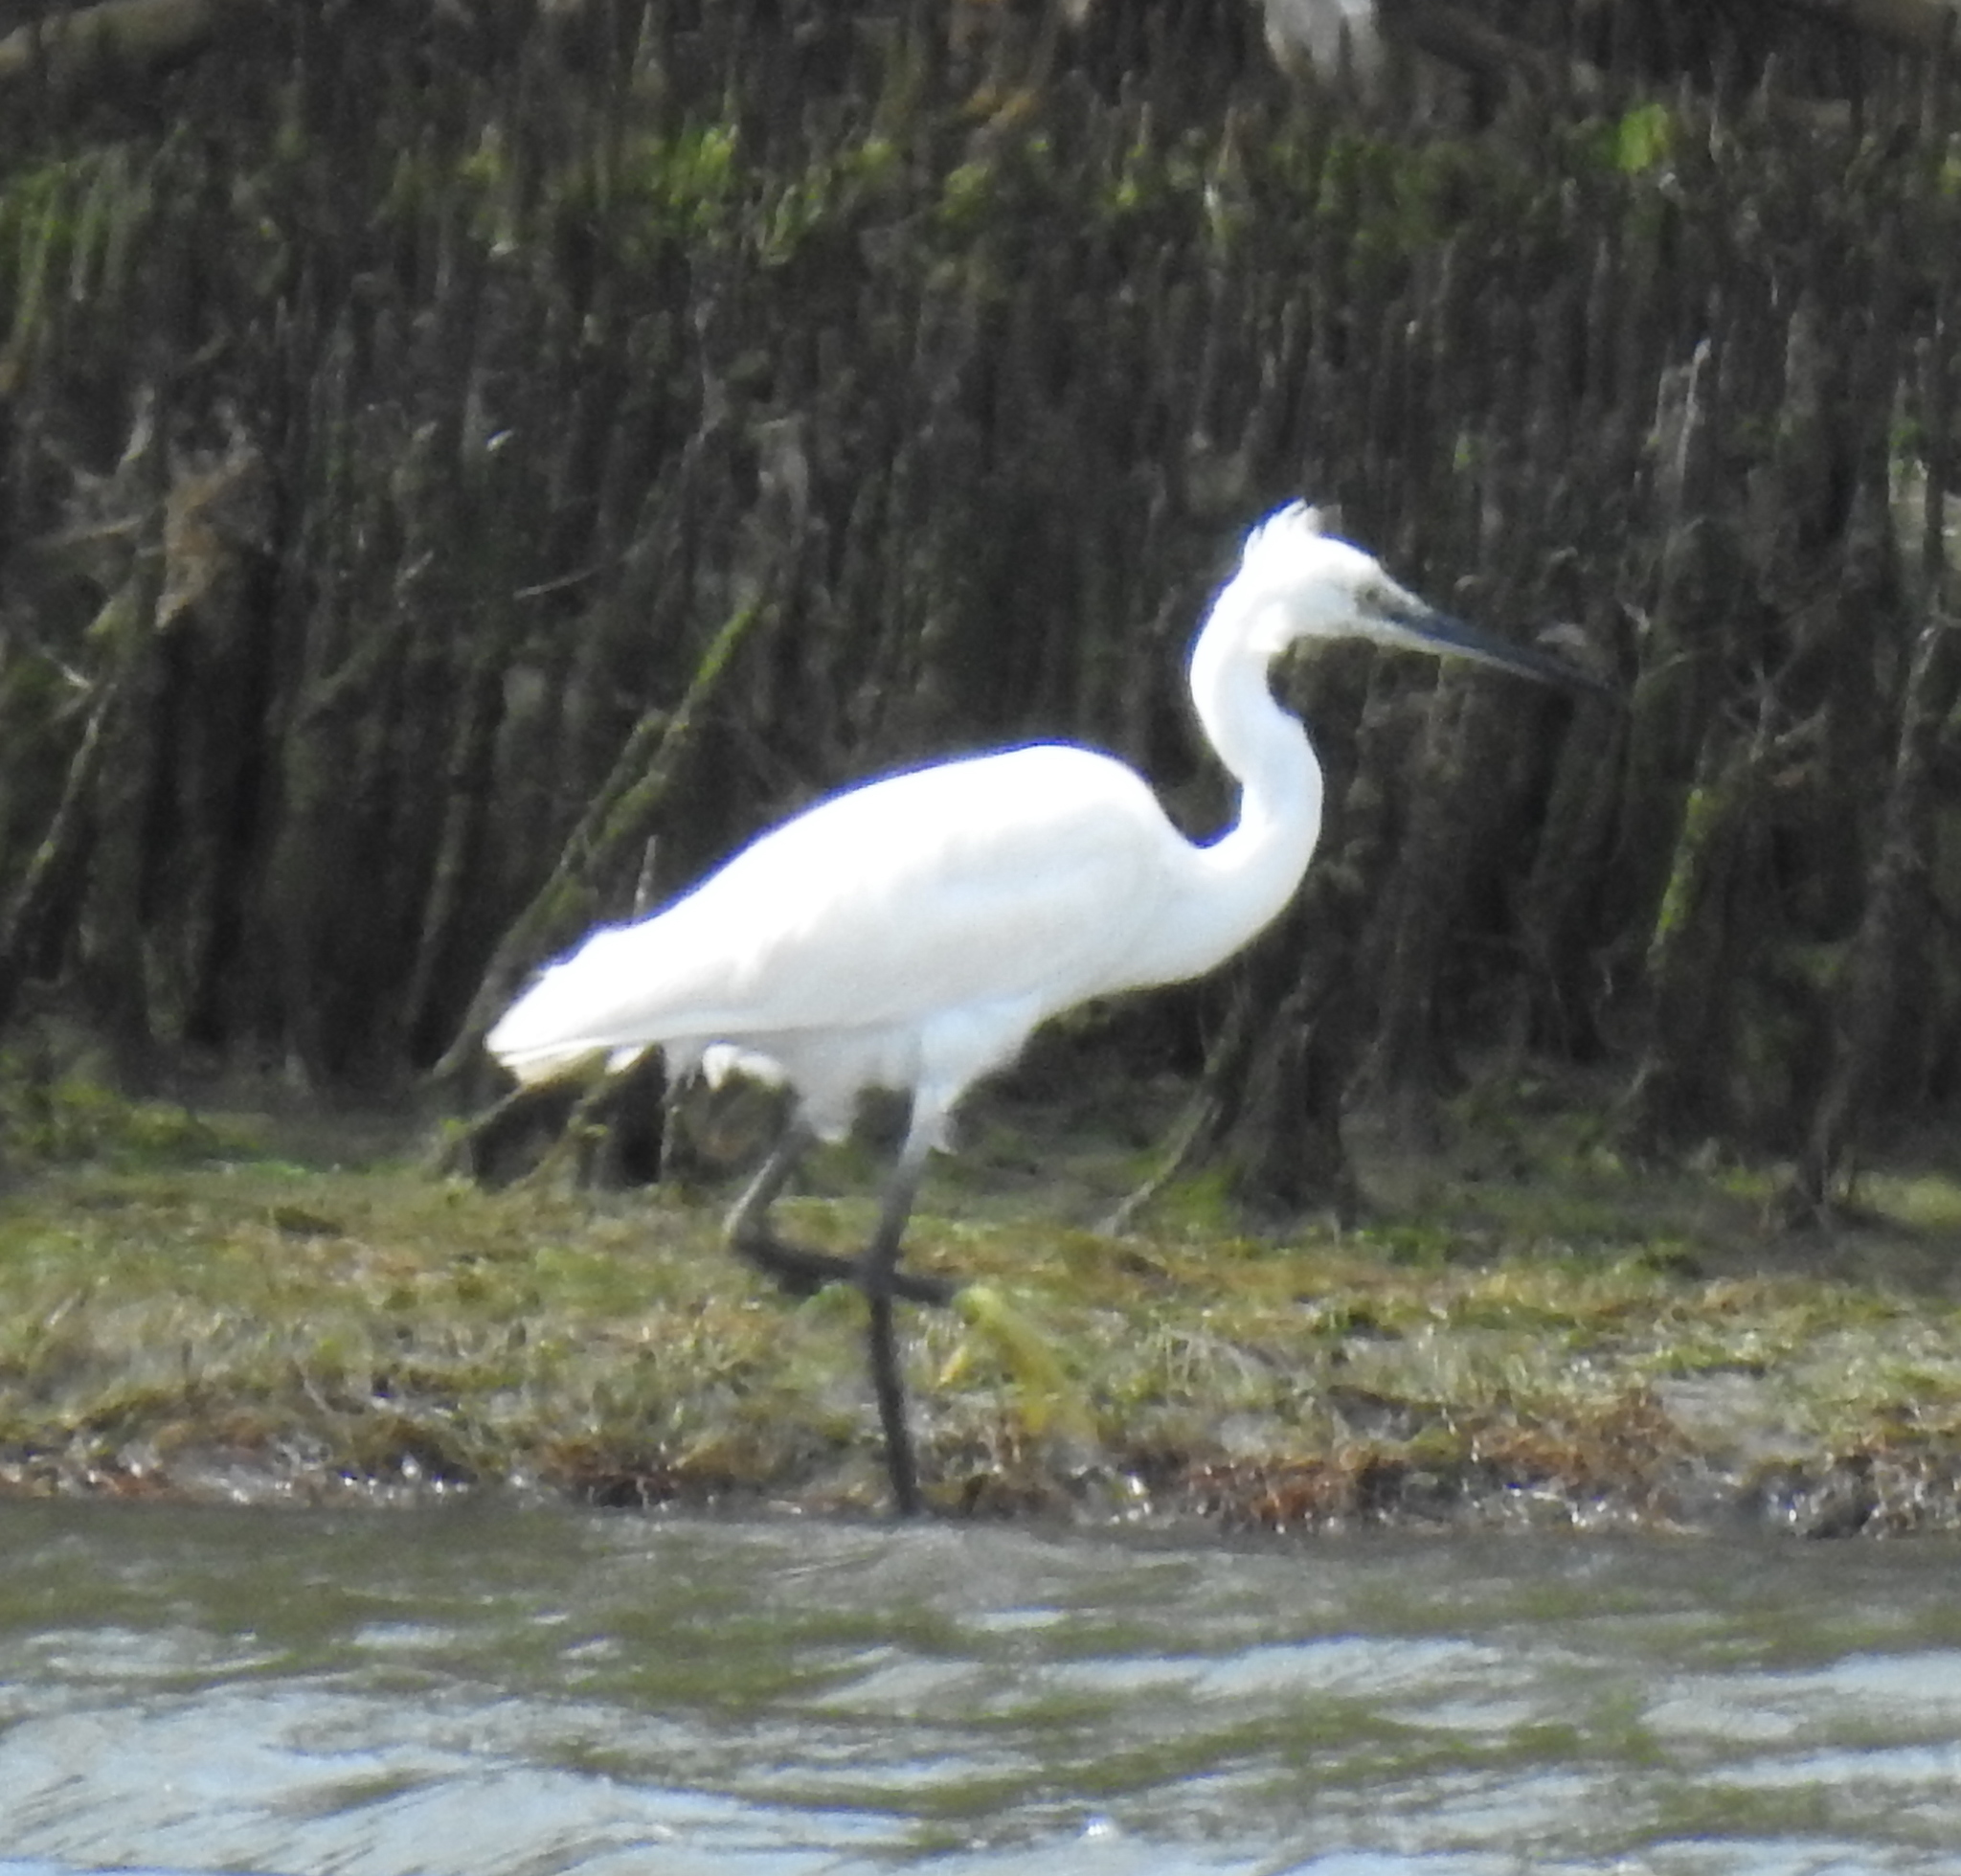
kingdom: Animalia
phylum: Chordata
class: Aves
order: Pelecaniformes
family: Ardeidae
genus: Egretta
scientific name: Egretta garzetta
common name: Little egret
